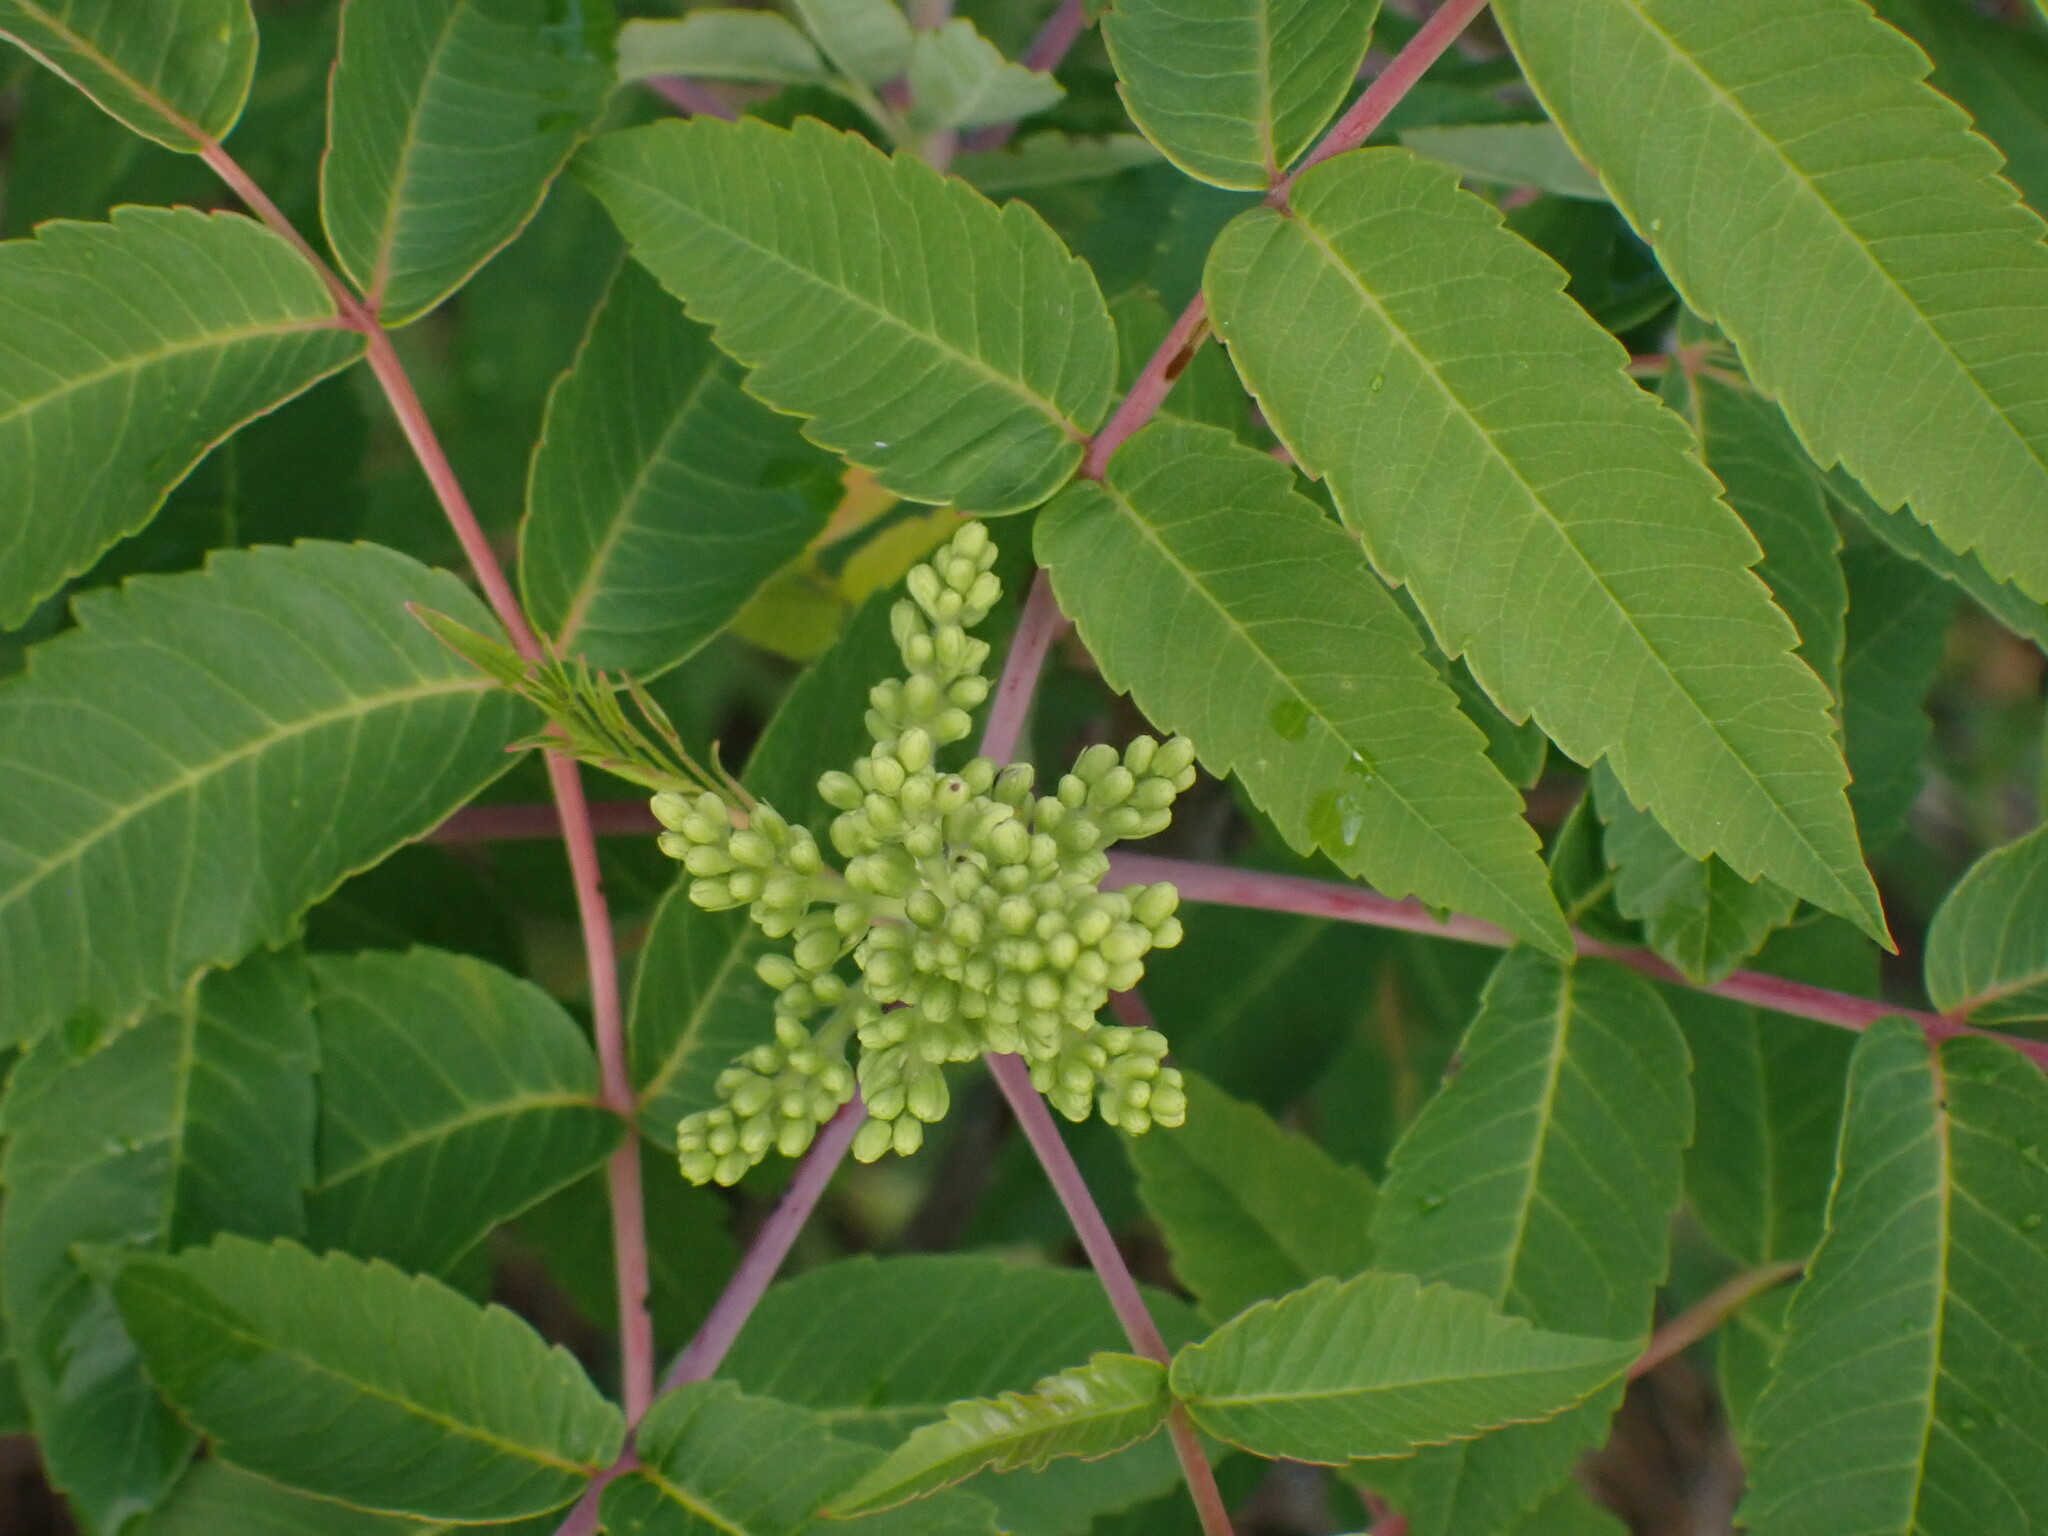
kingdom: Plantae
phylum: Tracheophyta
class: Magnoliopsida
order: Sapindales
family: Anacardiaceae
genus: Rhus
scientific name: Rhus glabra
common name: Scarlet sumac
